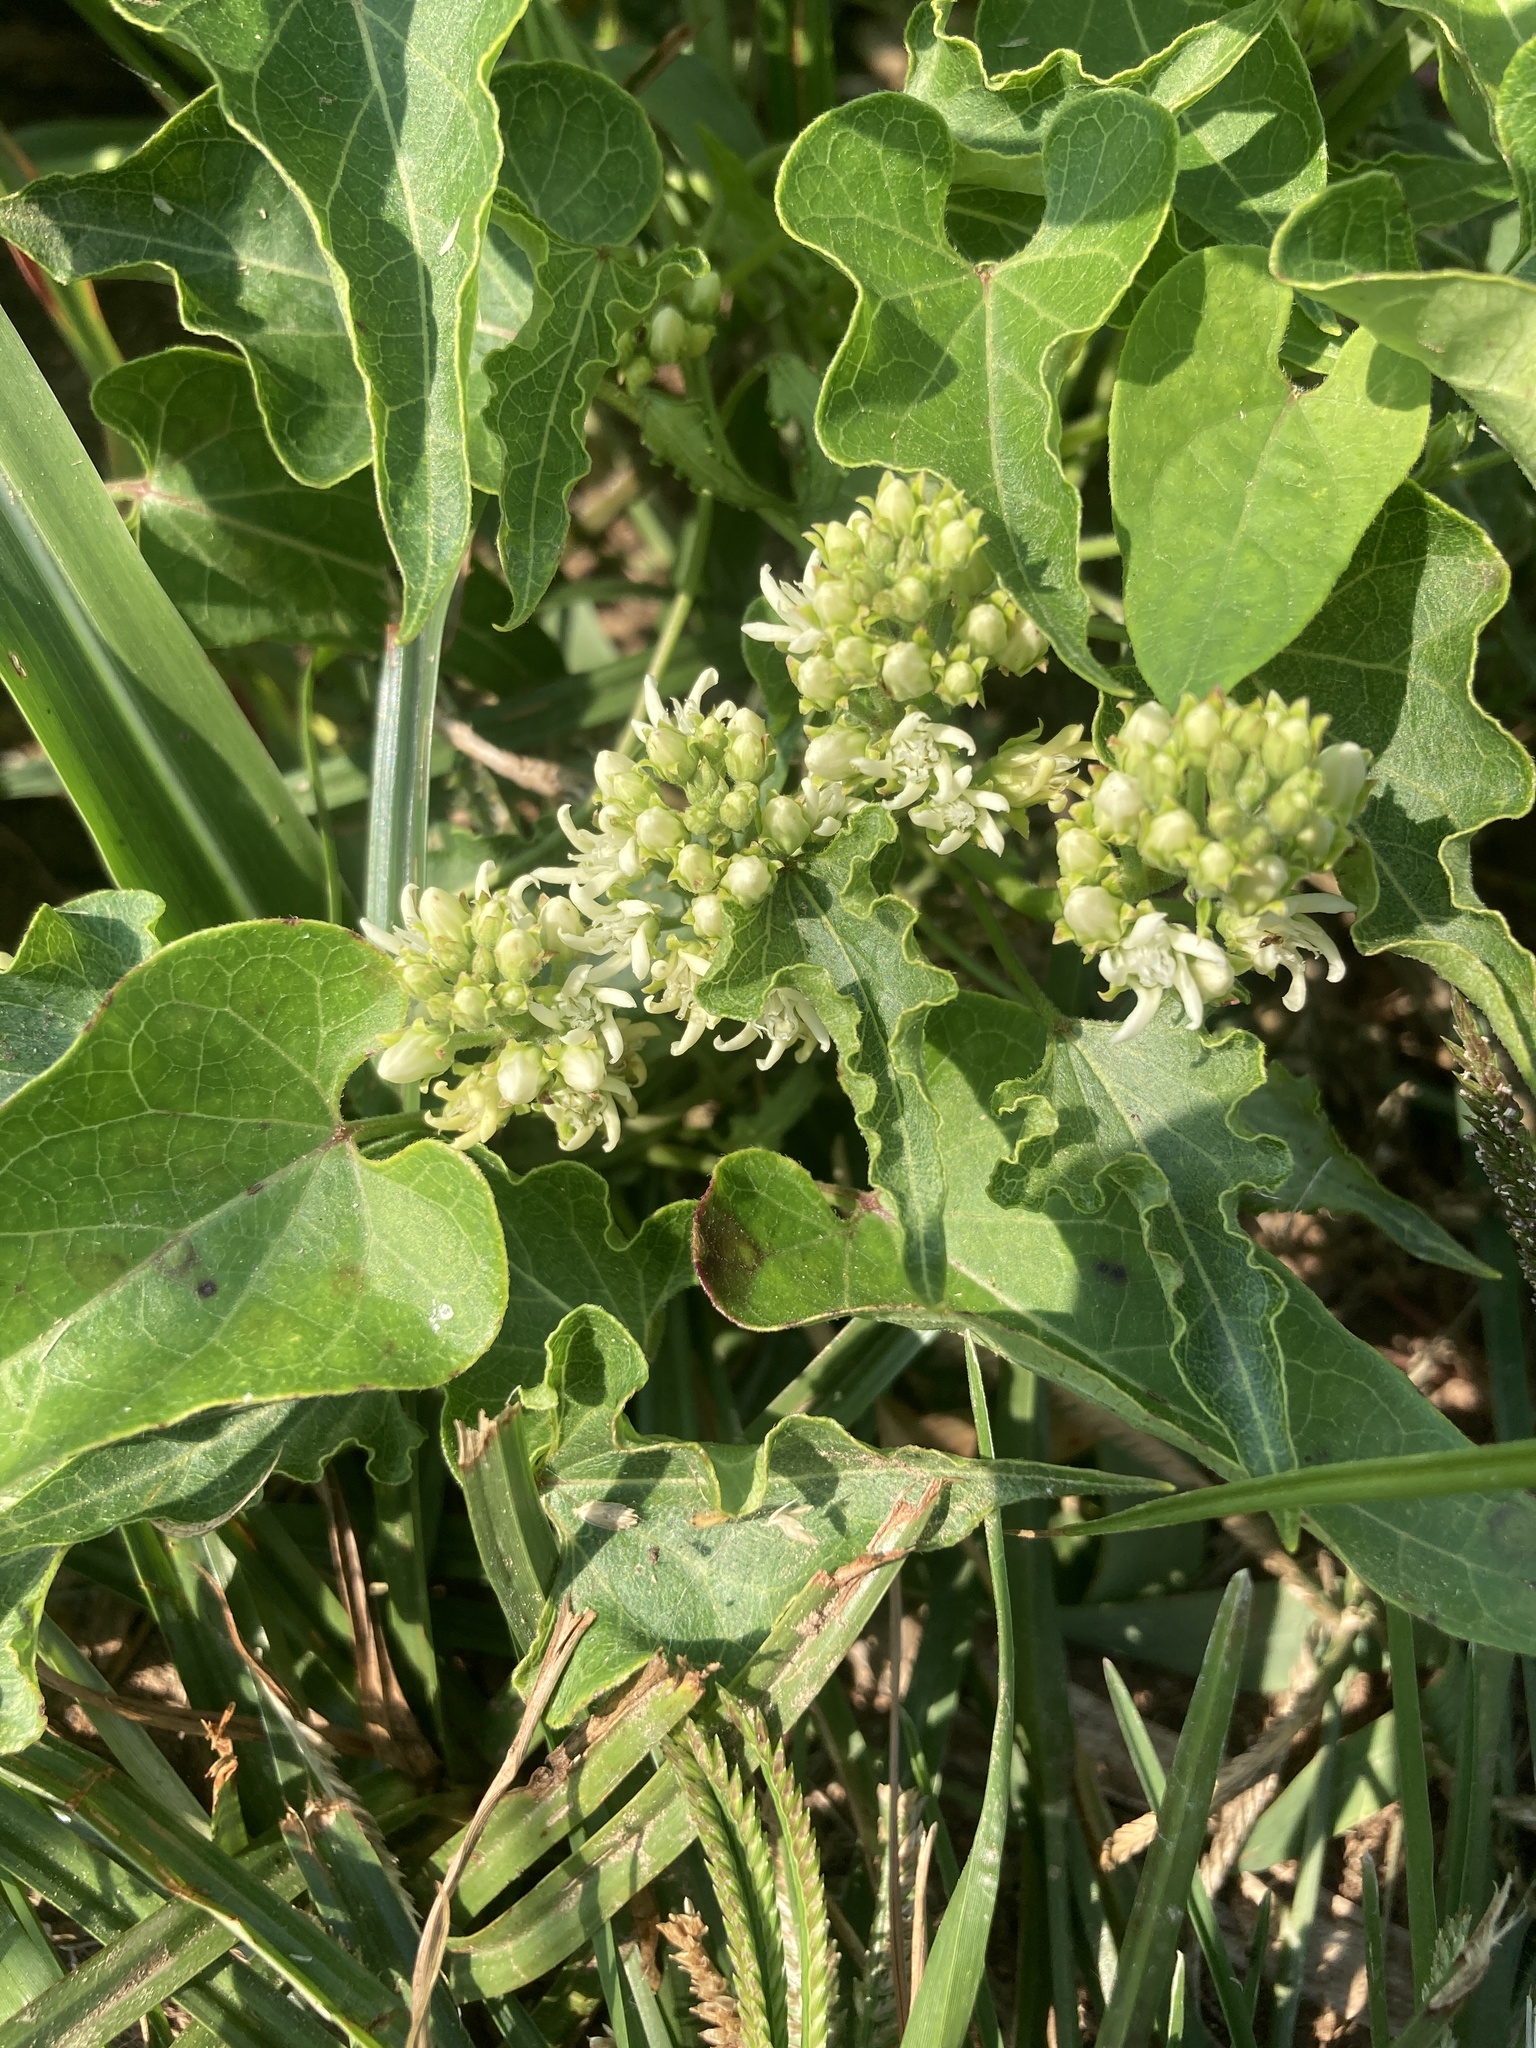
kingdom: Plantae
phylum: Tracheophyta
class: Magnoliopsida
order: Gentianales
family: Apocynaceae
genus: Cynanchum
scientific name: Cynanchum laeve
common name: Sandvine
